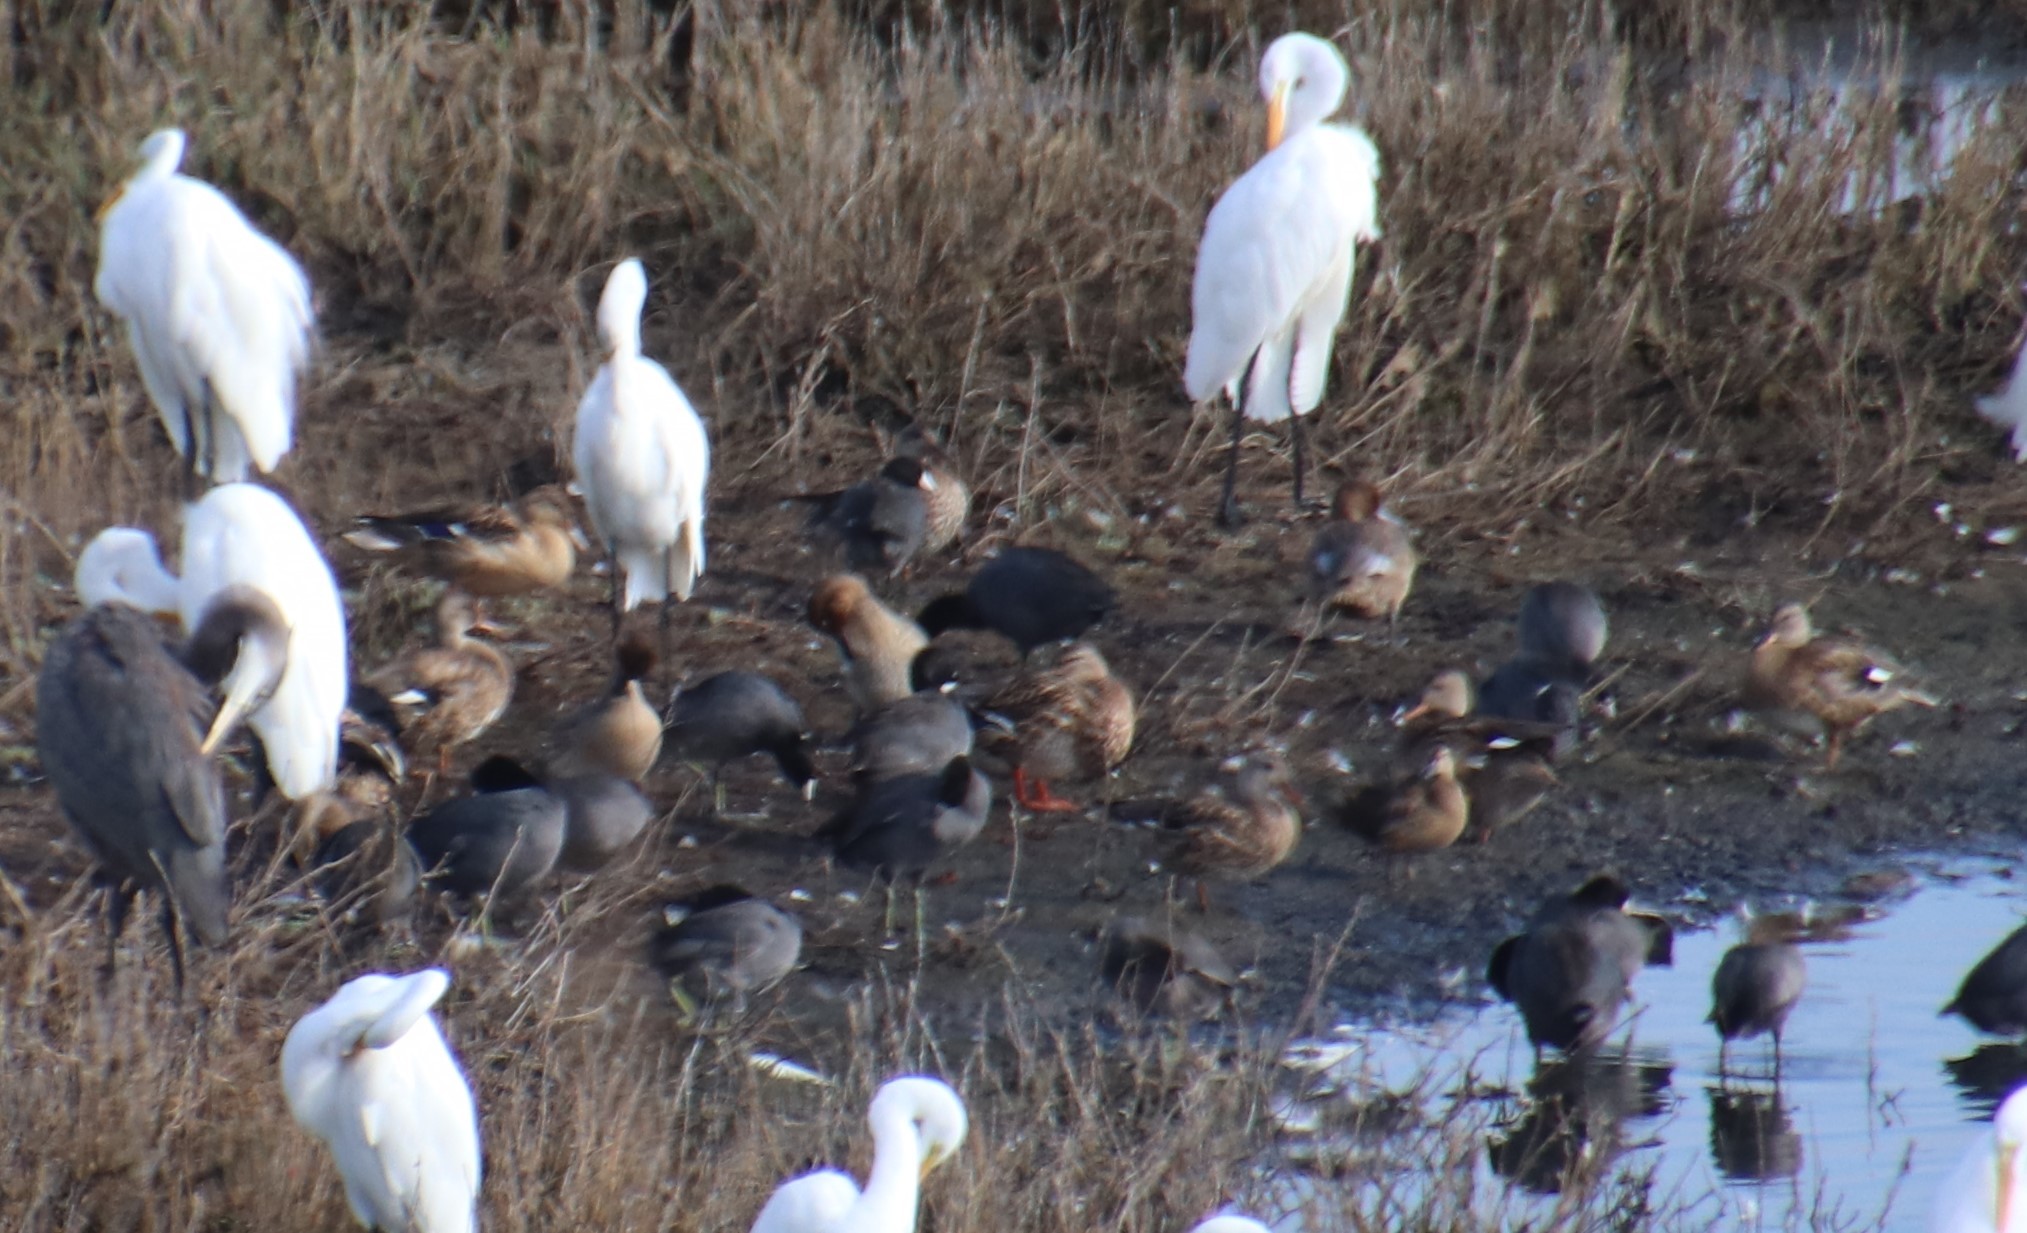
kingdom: Animalia
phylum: Chordata
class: Aves
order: Anseriformes
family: Anatidae
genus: Aythya
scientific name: Aythya americana
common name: Redhead
